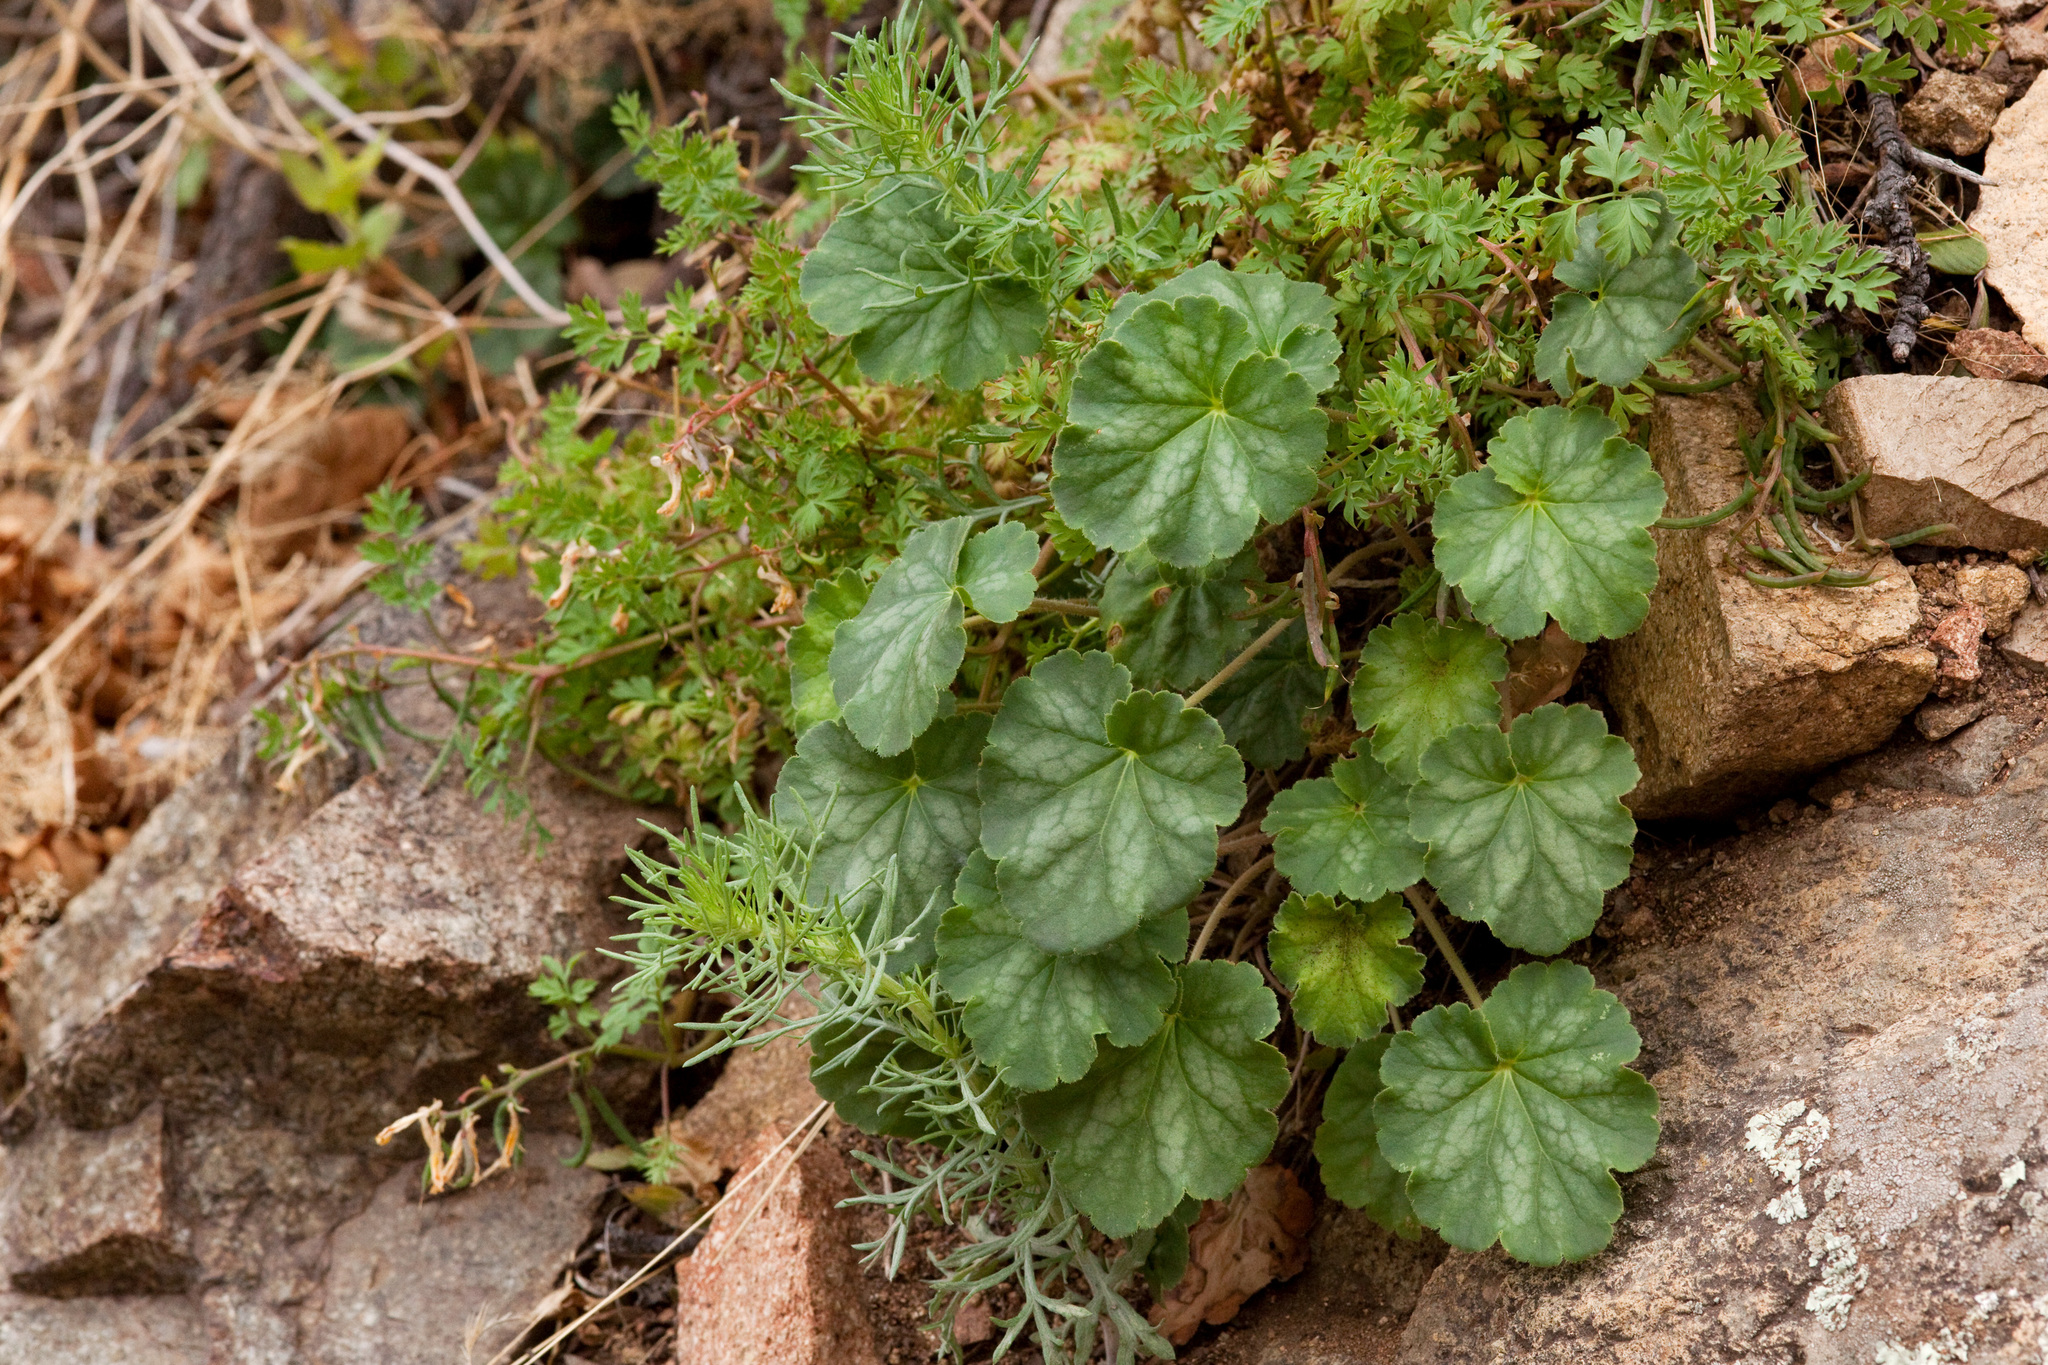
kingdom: Plantae
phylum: Tracheophyta
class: Magnoliopsida
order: Saxifragales
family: Saxifragaceae
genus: Heuchera
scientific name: Heuchera novomexicana
